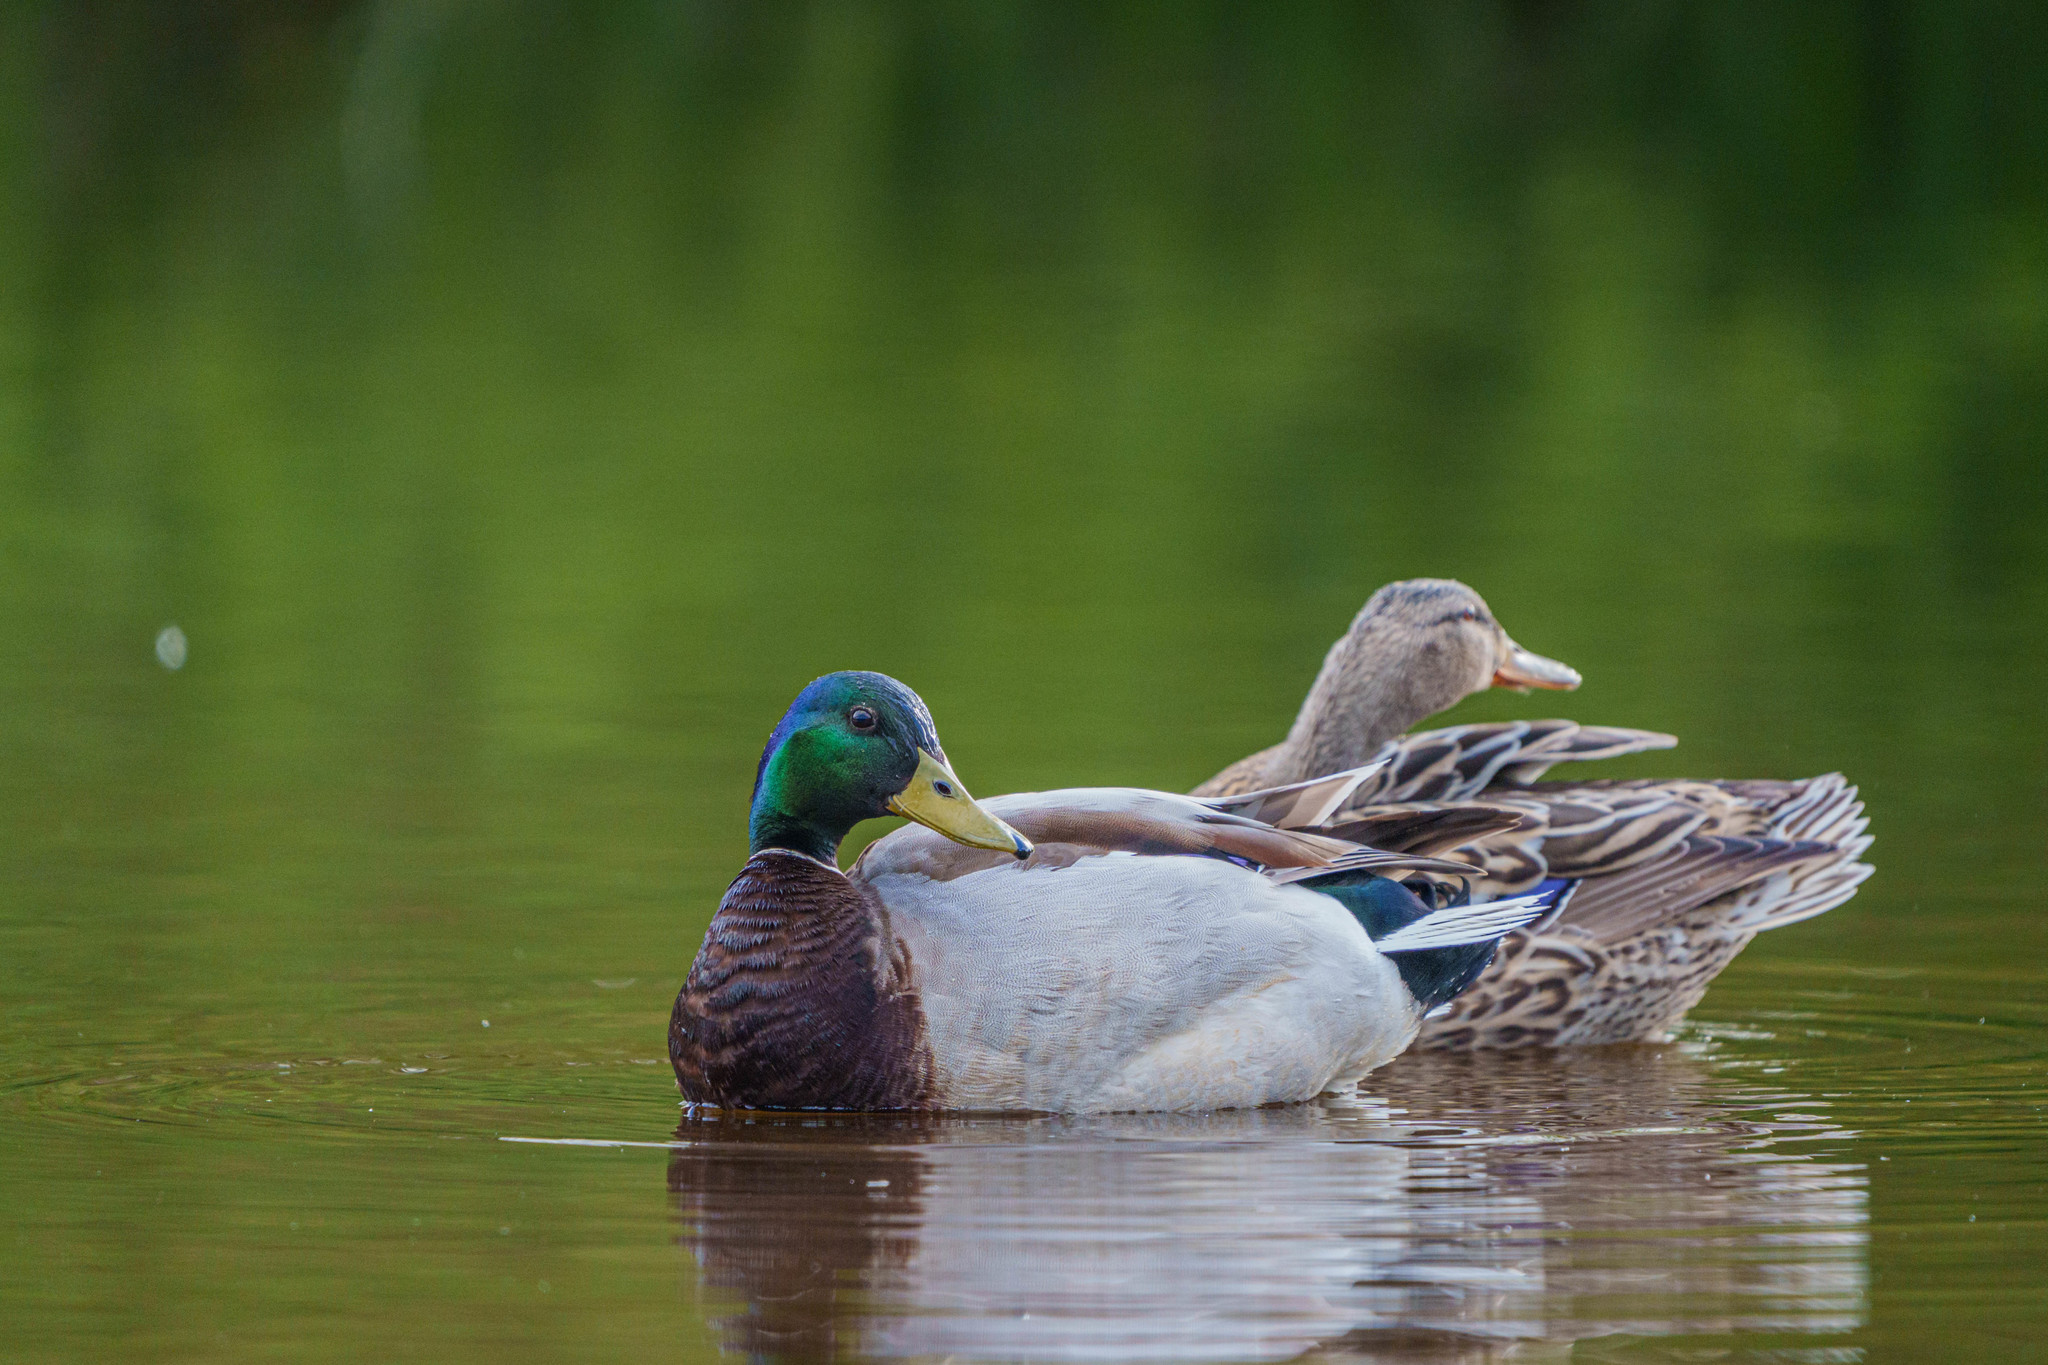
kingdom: Animalia
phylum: Chordata
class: Aves
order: Anseriformes
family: Anatidae
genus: Anas
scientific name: Anas platyrhynchos
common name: Mallard
